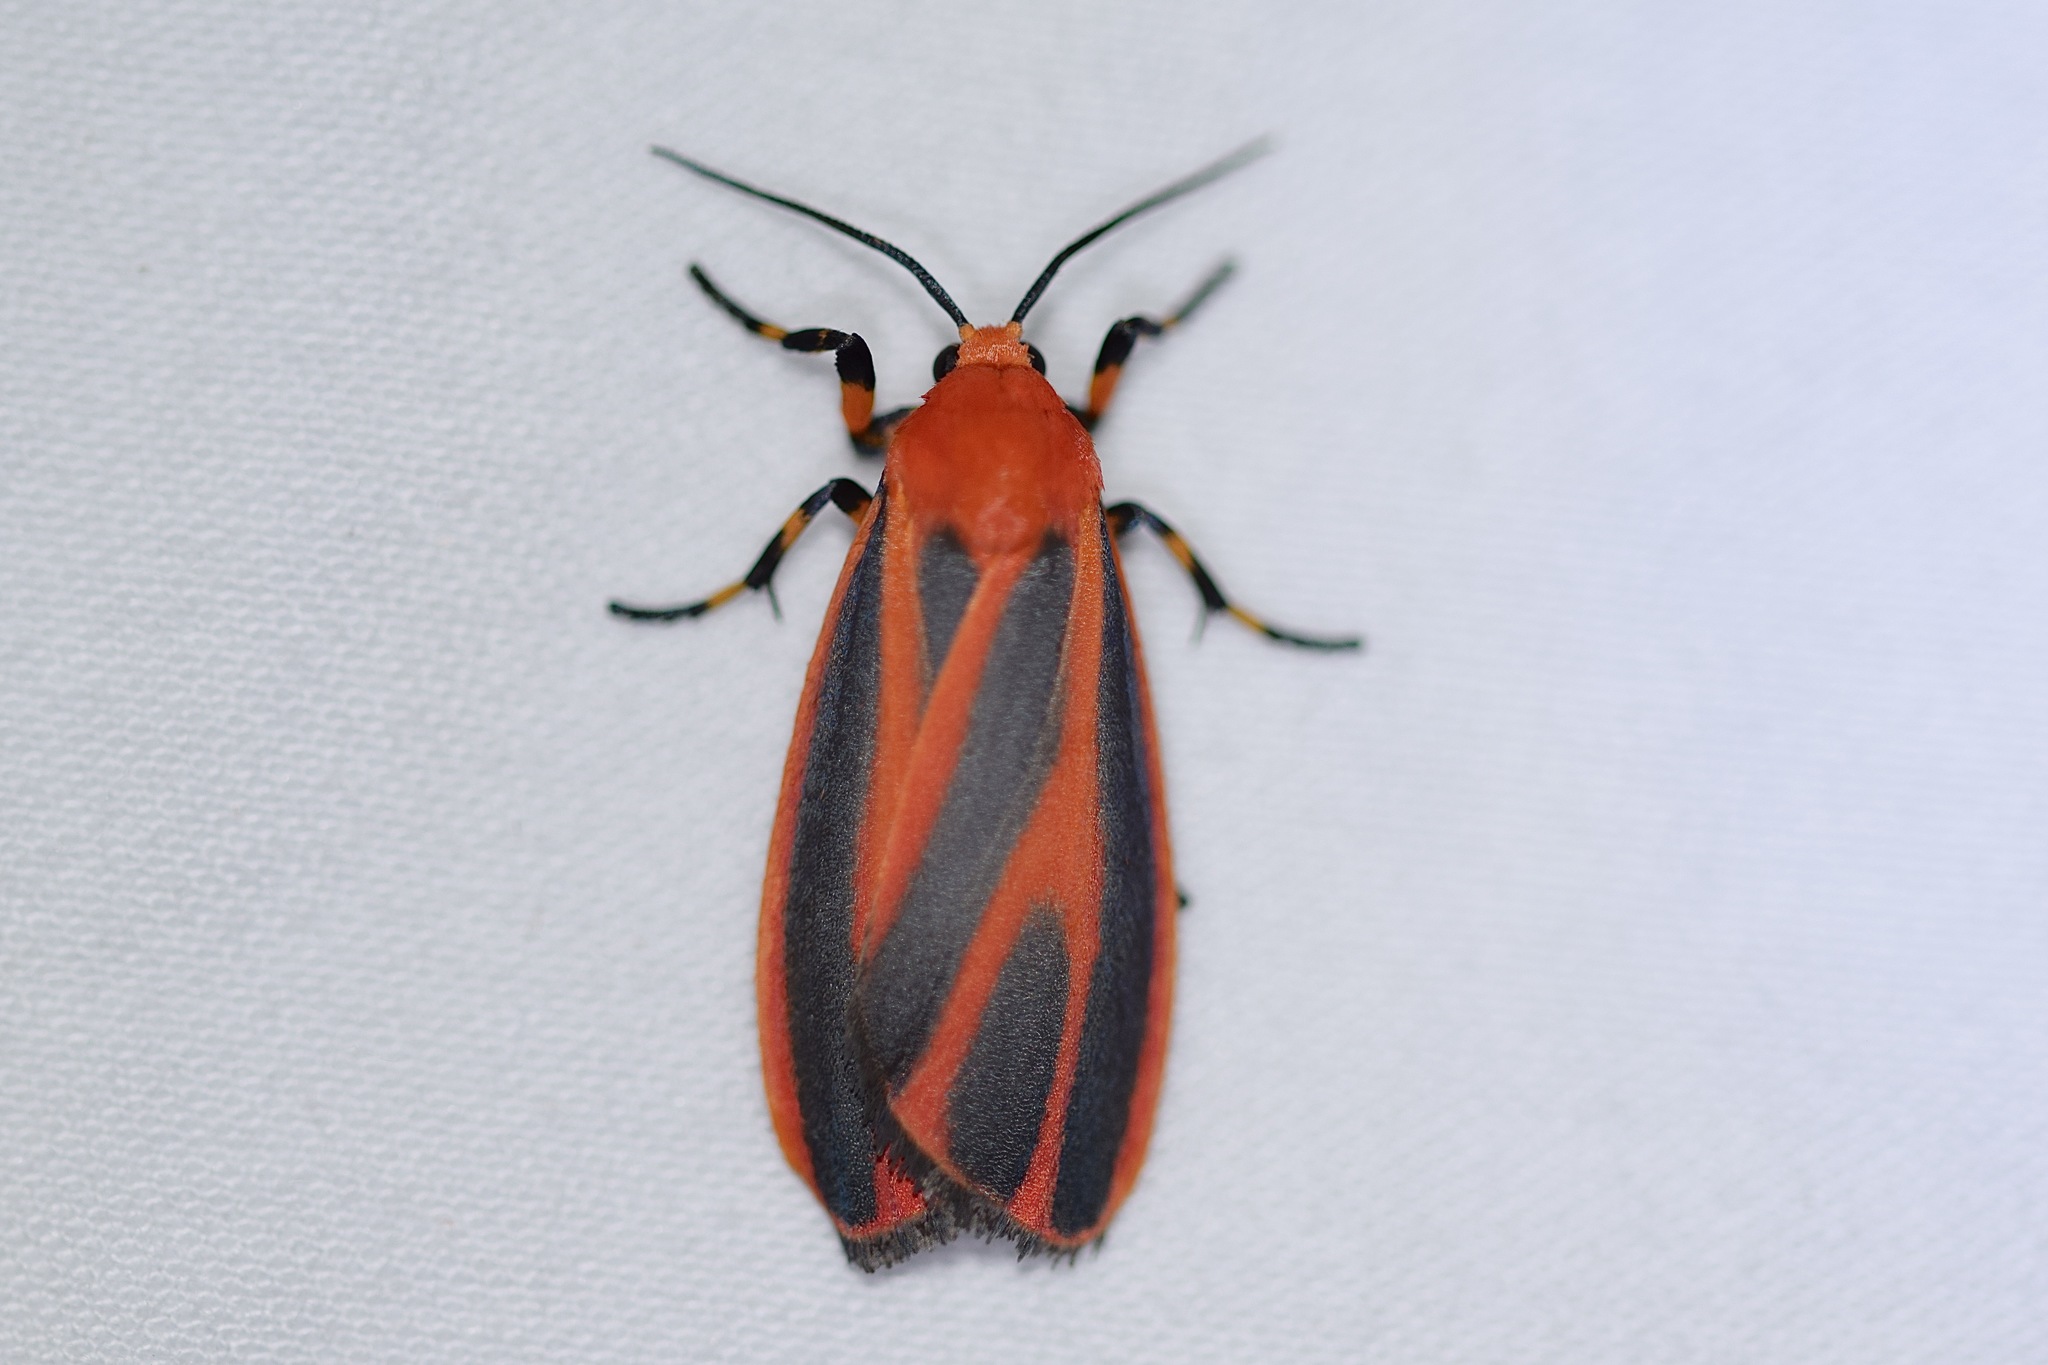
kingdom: Animalia
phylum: Arthropoda
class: Insecta
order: Lepidoptera
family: Erebidae
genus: Hypoprepia
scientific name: Hypoprepia miniata
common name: Scarlet-winged lichen moth
